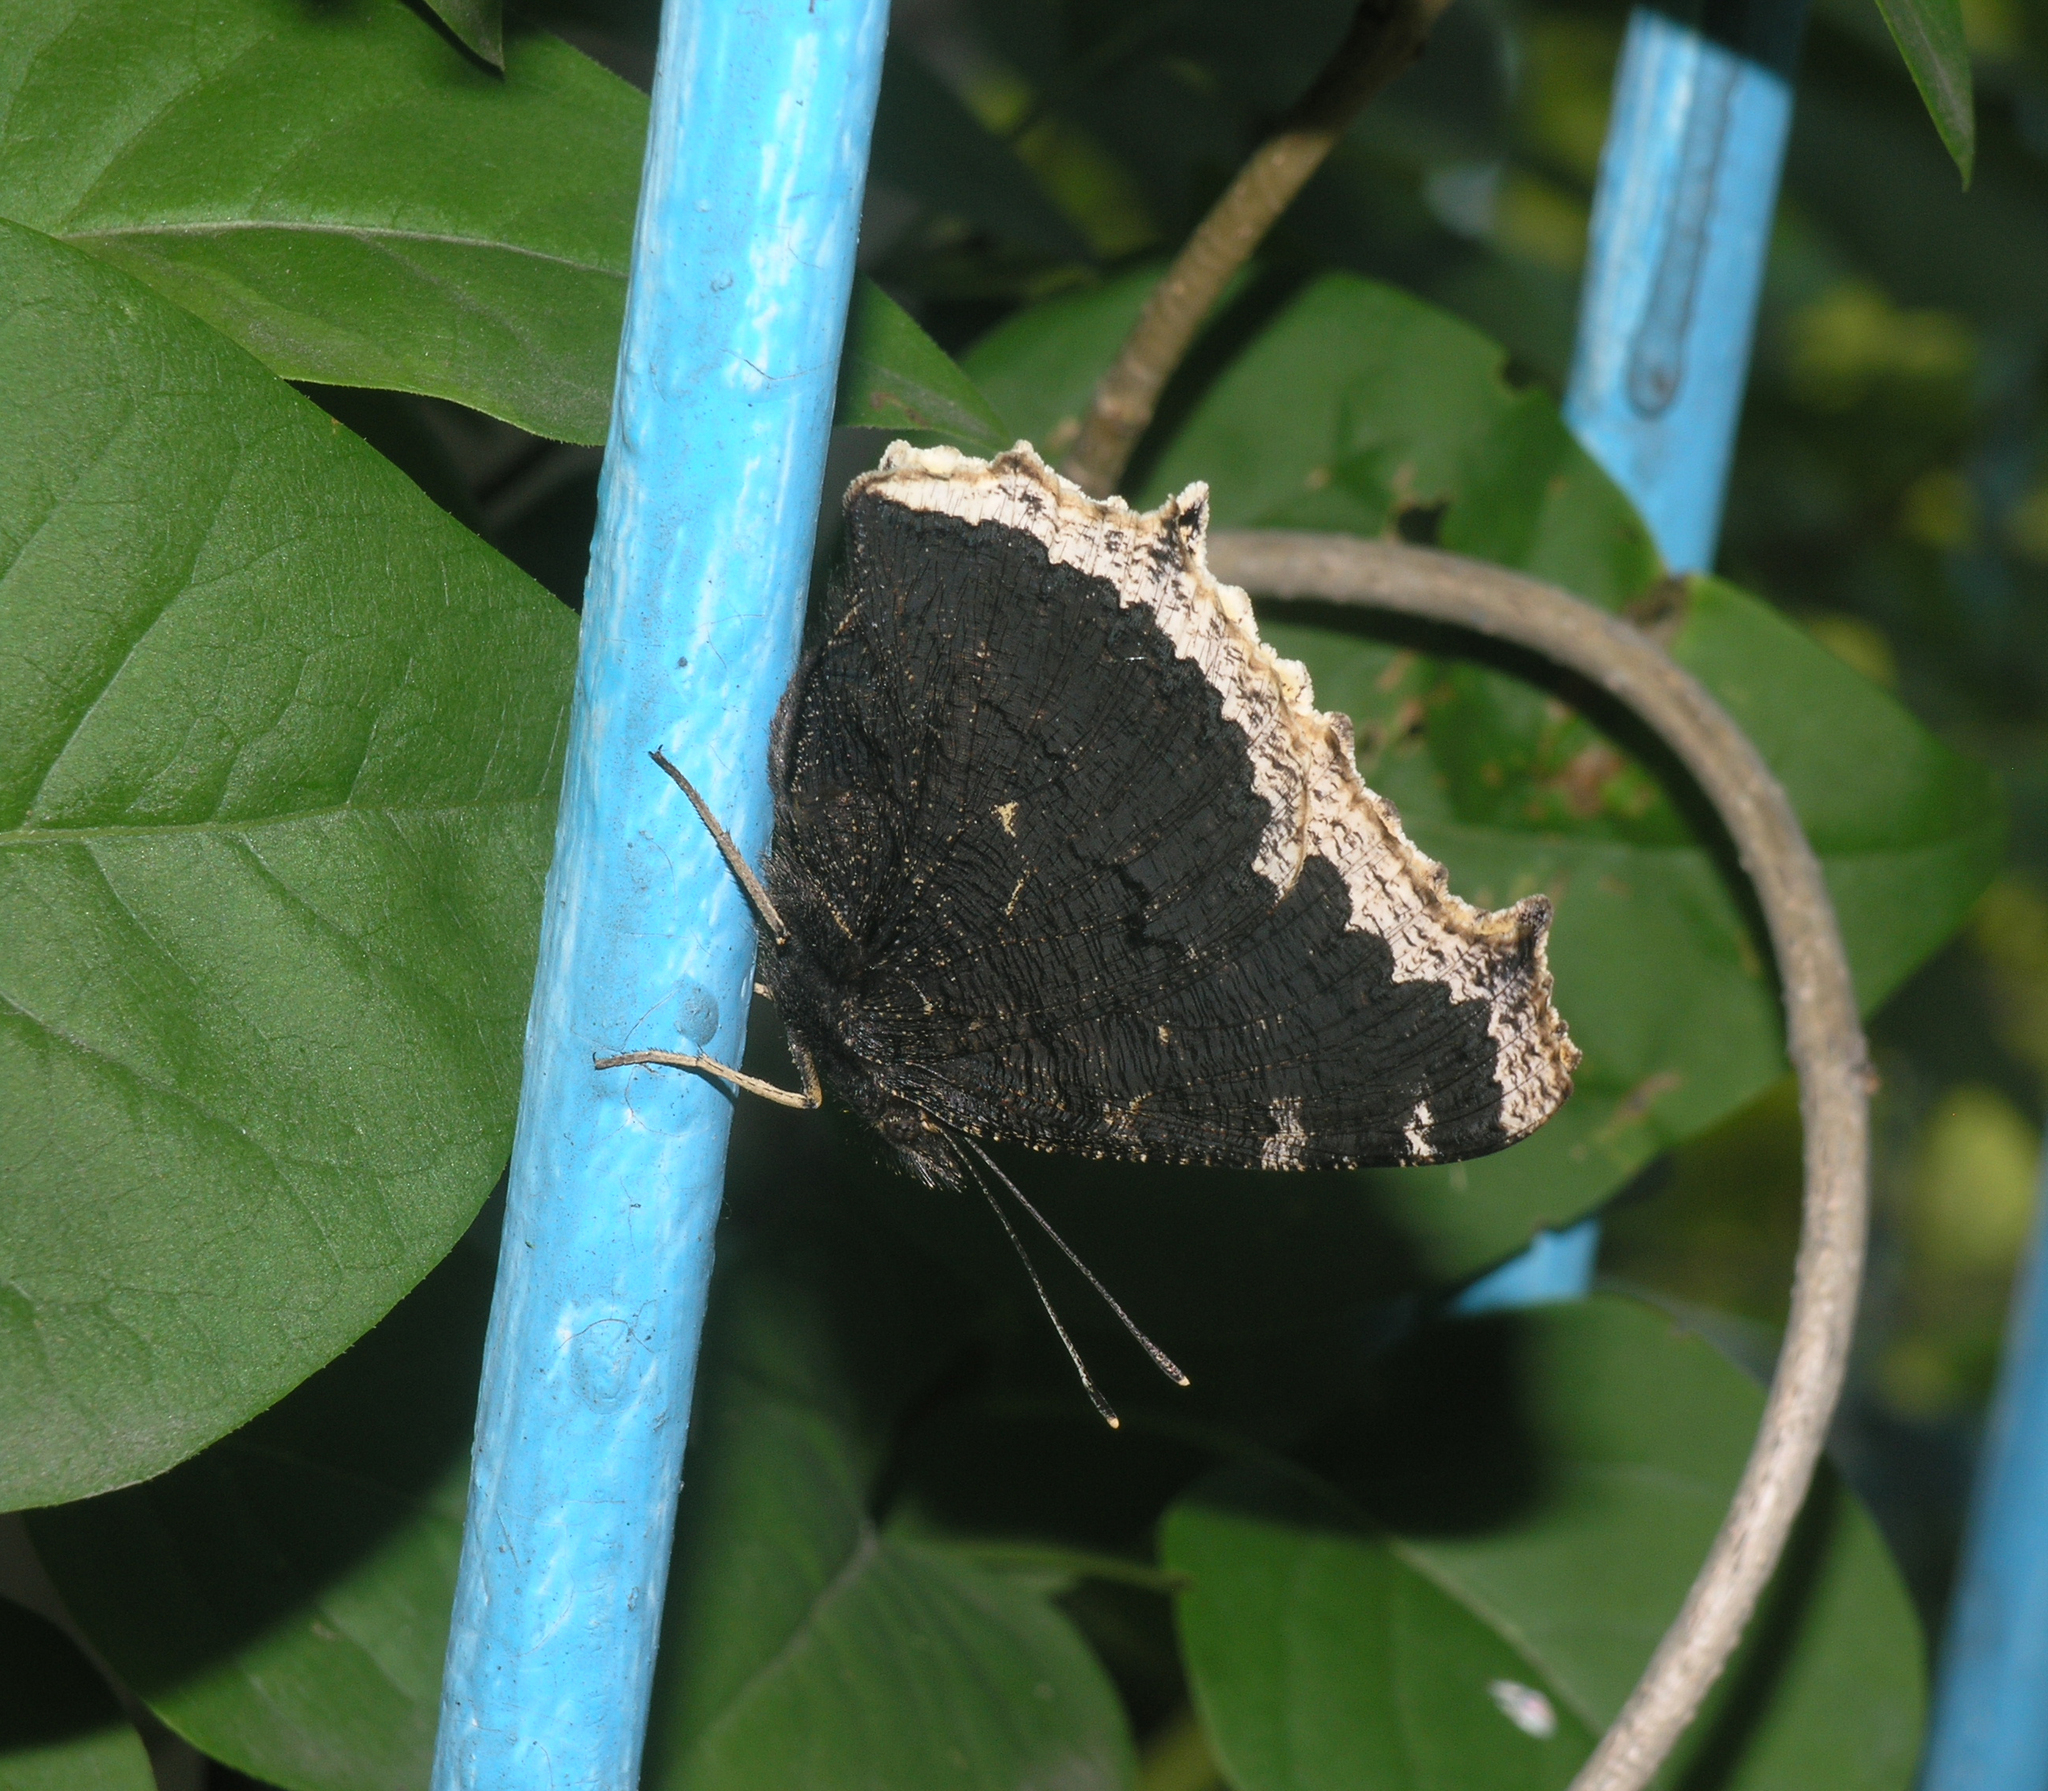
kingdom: Animalia
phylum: Arthropoda
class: Insecta
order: Lepidoptera
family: Nymphalidae
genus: Nymphalis
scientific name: Nymphalis antiopa
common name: Camberwell beauty
